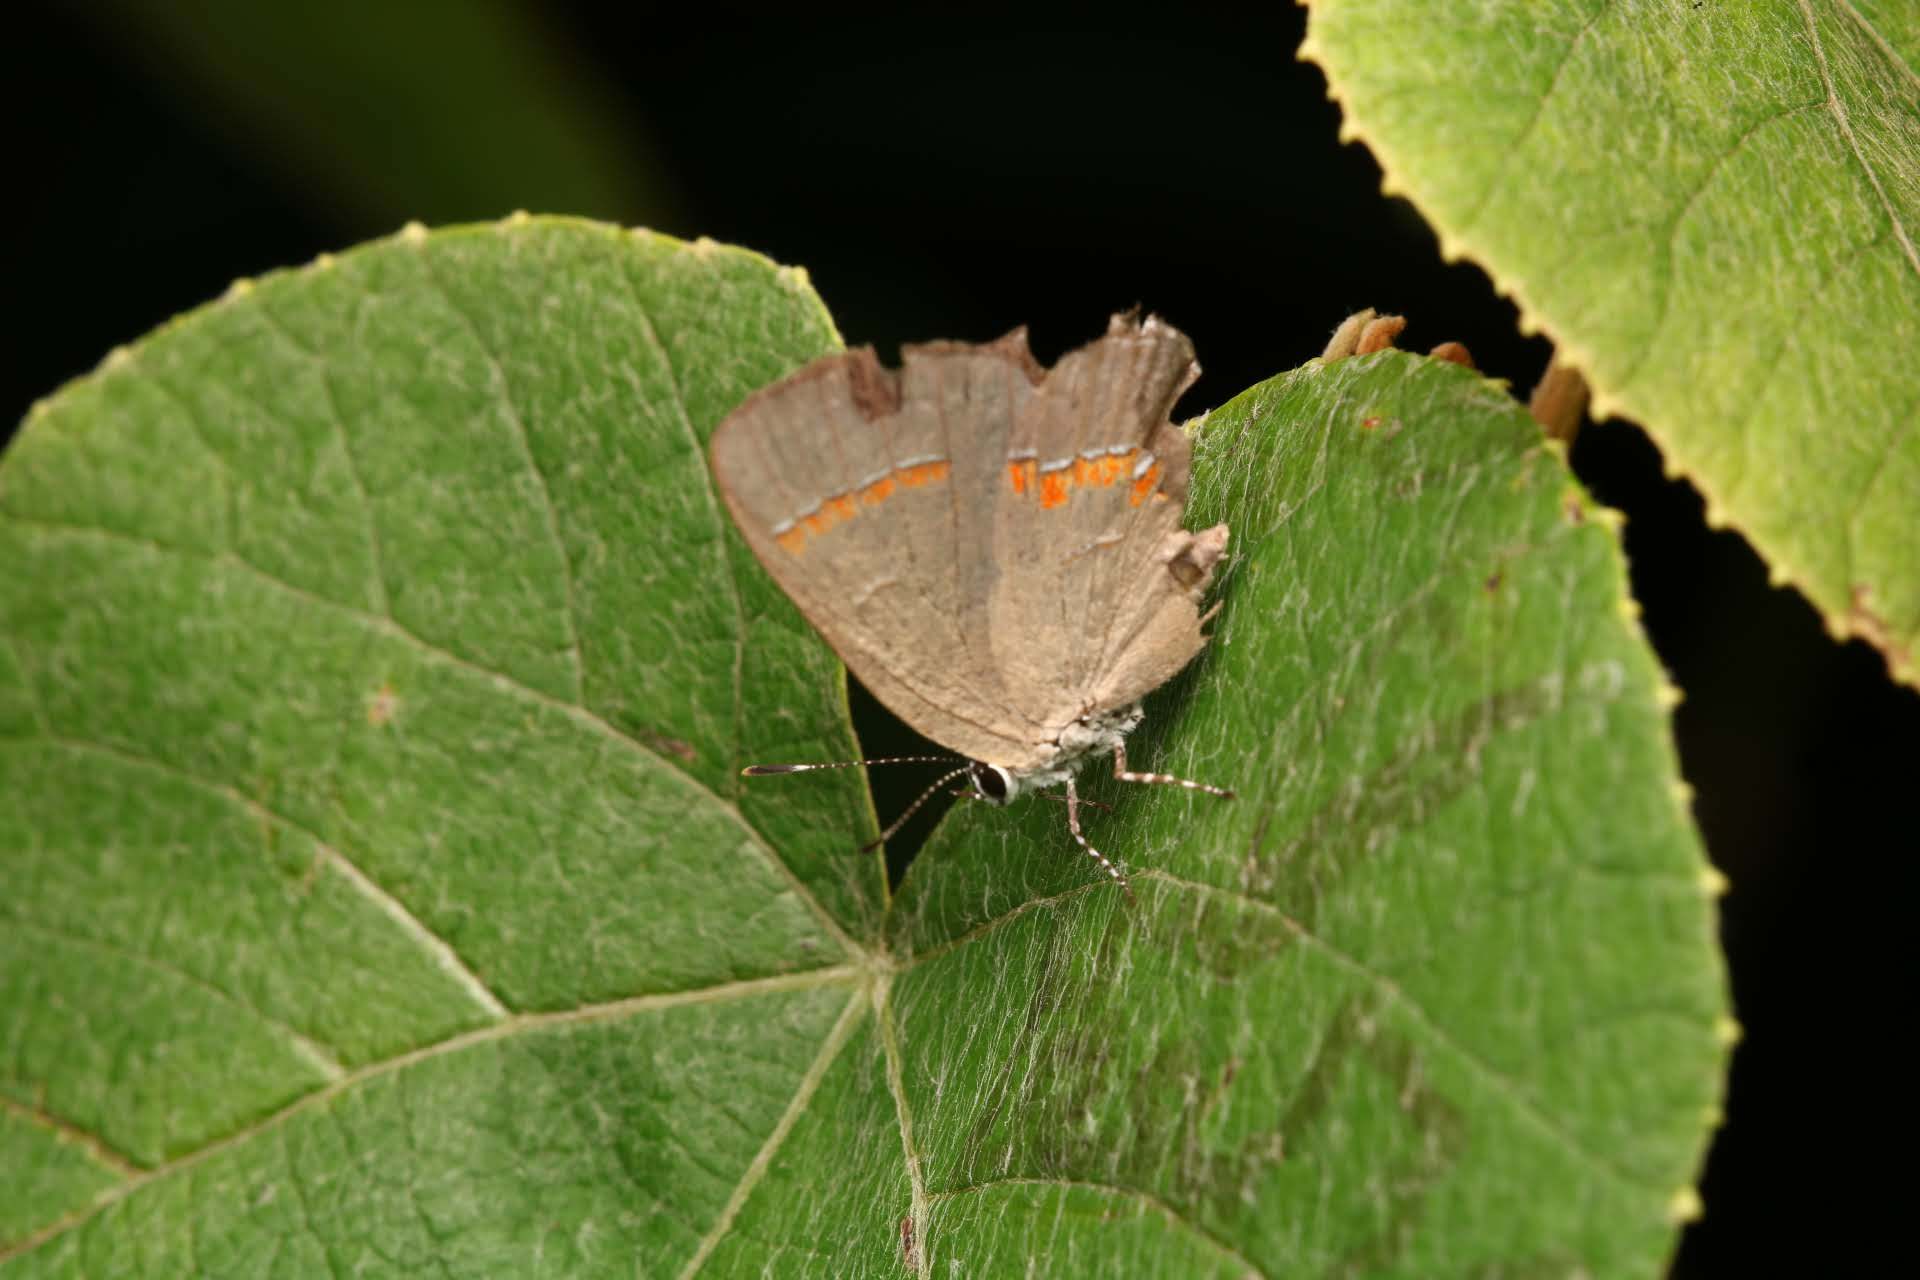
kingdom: Animalia
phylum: Arthropoda
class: Insecta
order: Lepidoptera
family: Lycaenidae
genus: Calycopis
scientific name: Calycopis cecrops
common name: Red-banded hairstreak
